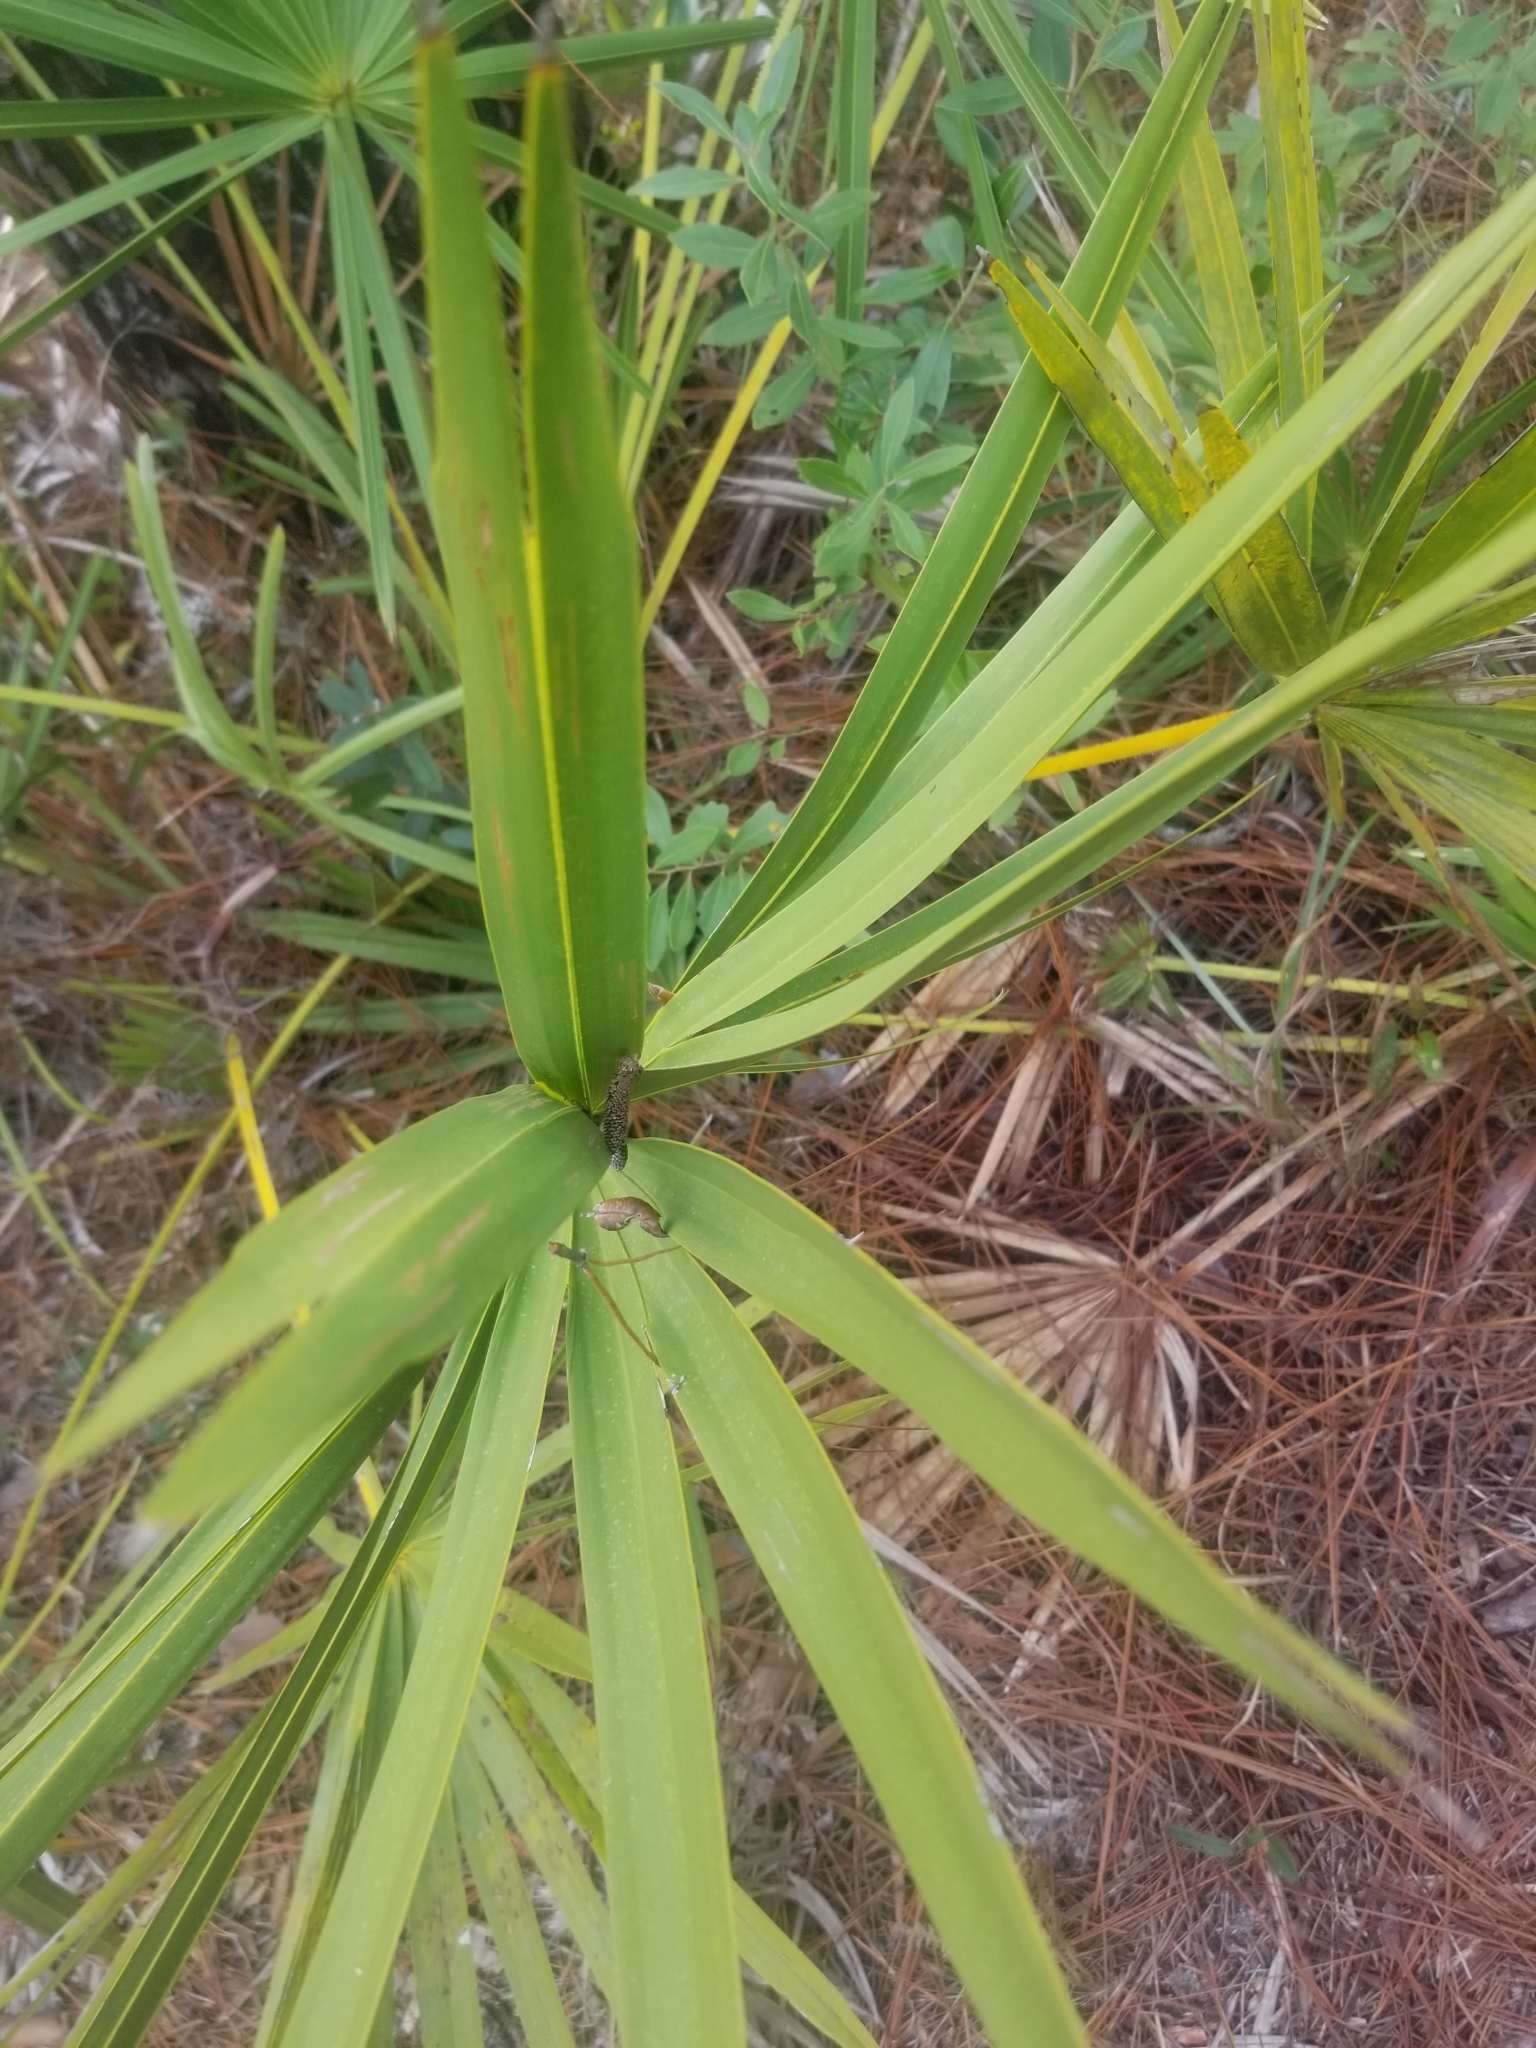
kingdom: Plantae
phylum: Tracheophyta
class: Liliopsida
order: Arecales
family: Arecaceae
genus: Serenoa
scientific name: Serenoa repens
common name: Saw-palmetto
